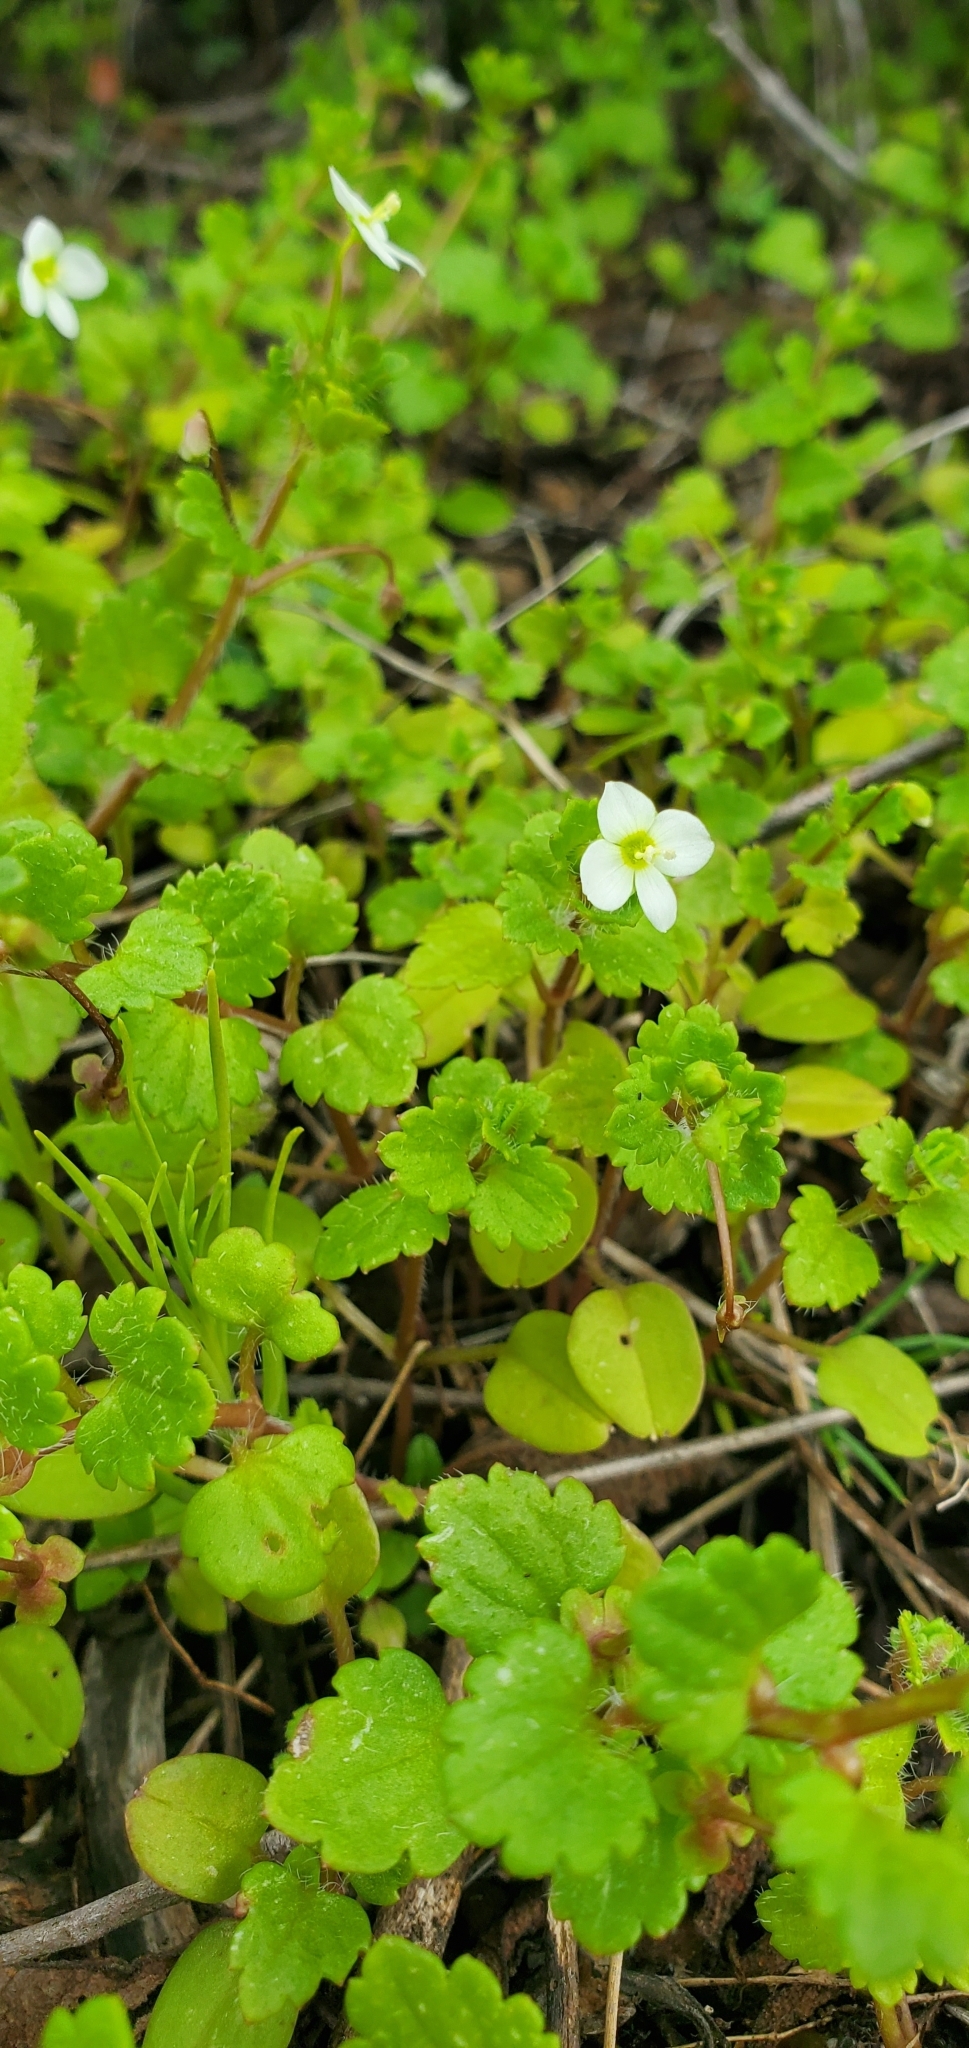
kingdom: Plantae
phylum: Tracheophyta
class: Magnoliopsida
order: Lamiales
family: Plantaginaceae
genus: Veronica
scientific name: Veronica cymbalaria
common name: Pale speedwell
